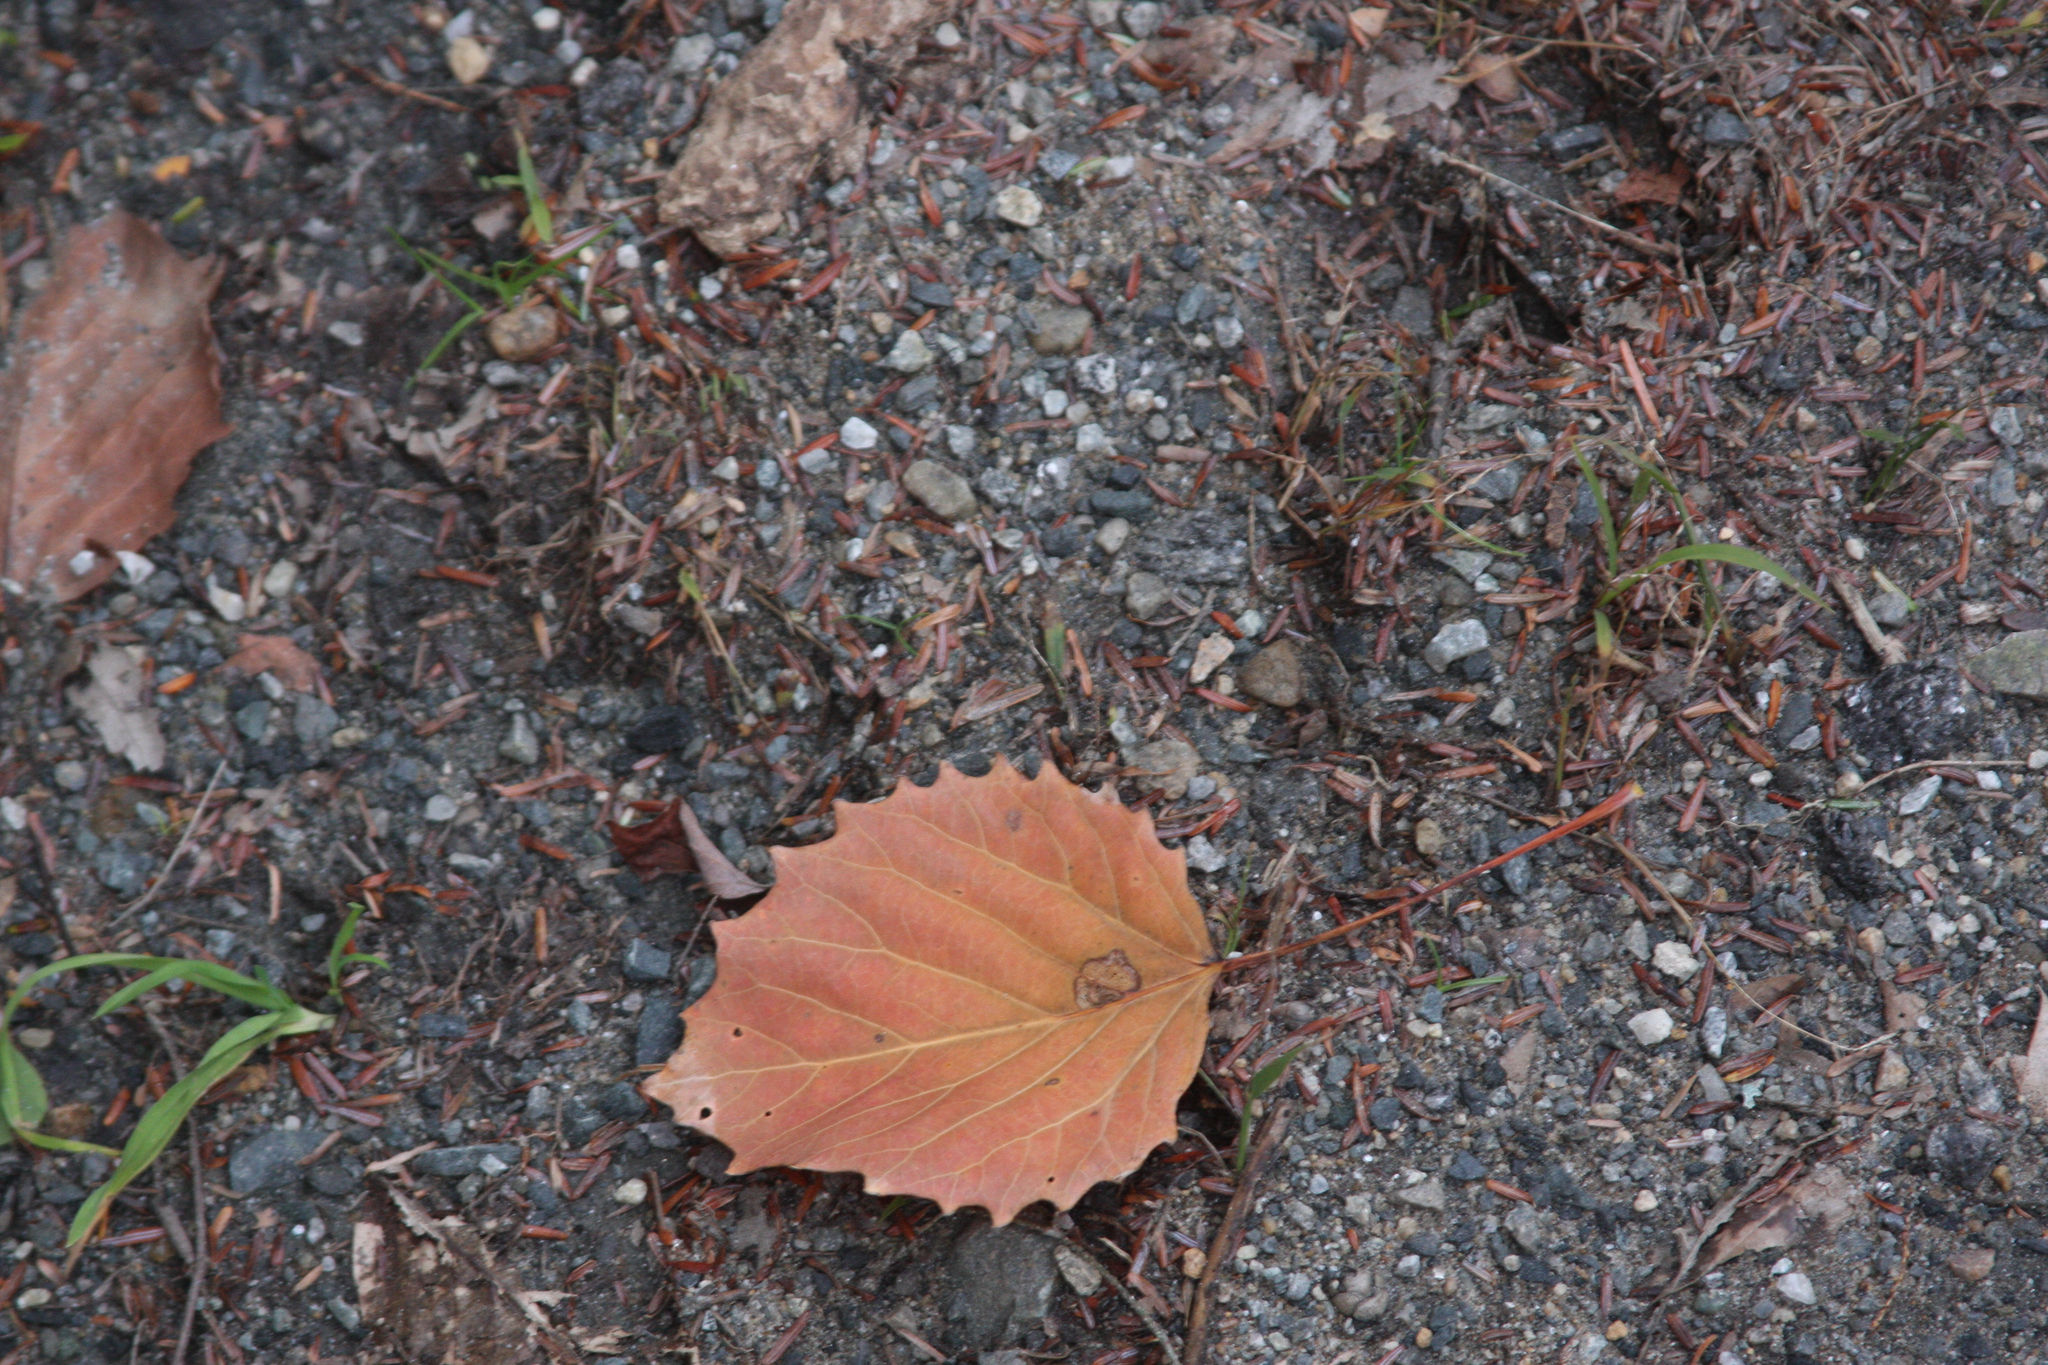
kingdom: Plantae
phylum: Tracheophyta
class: Magnoliopsida
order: Malpighiales
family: Salicaceae
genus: Populus
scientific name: Populus grandidentata
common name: Bigtooth aspen
